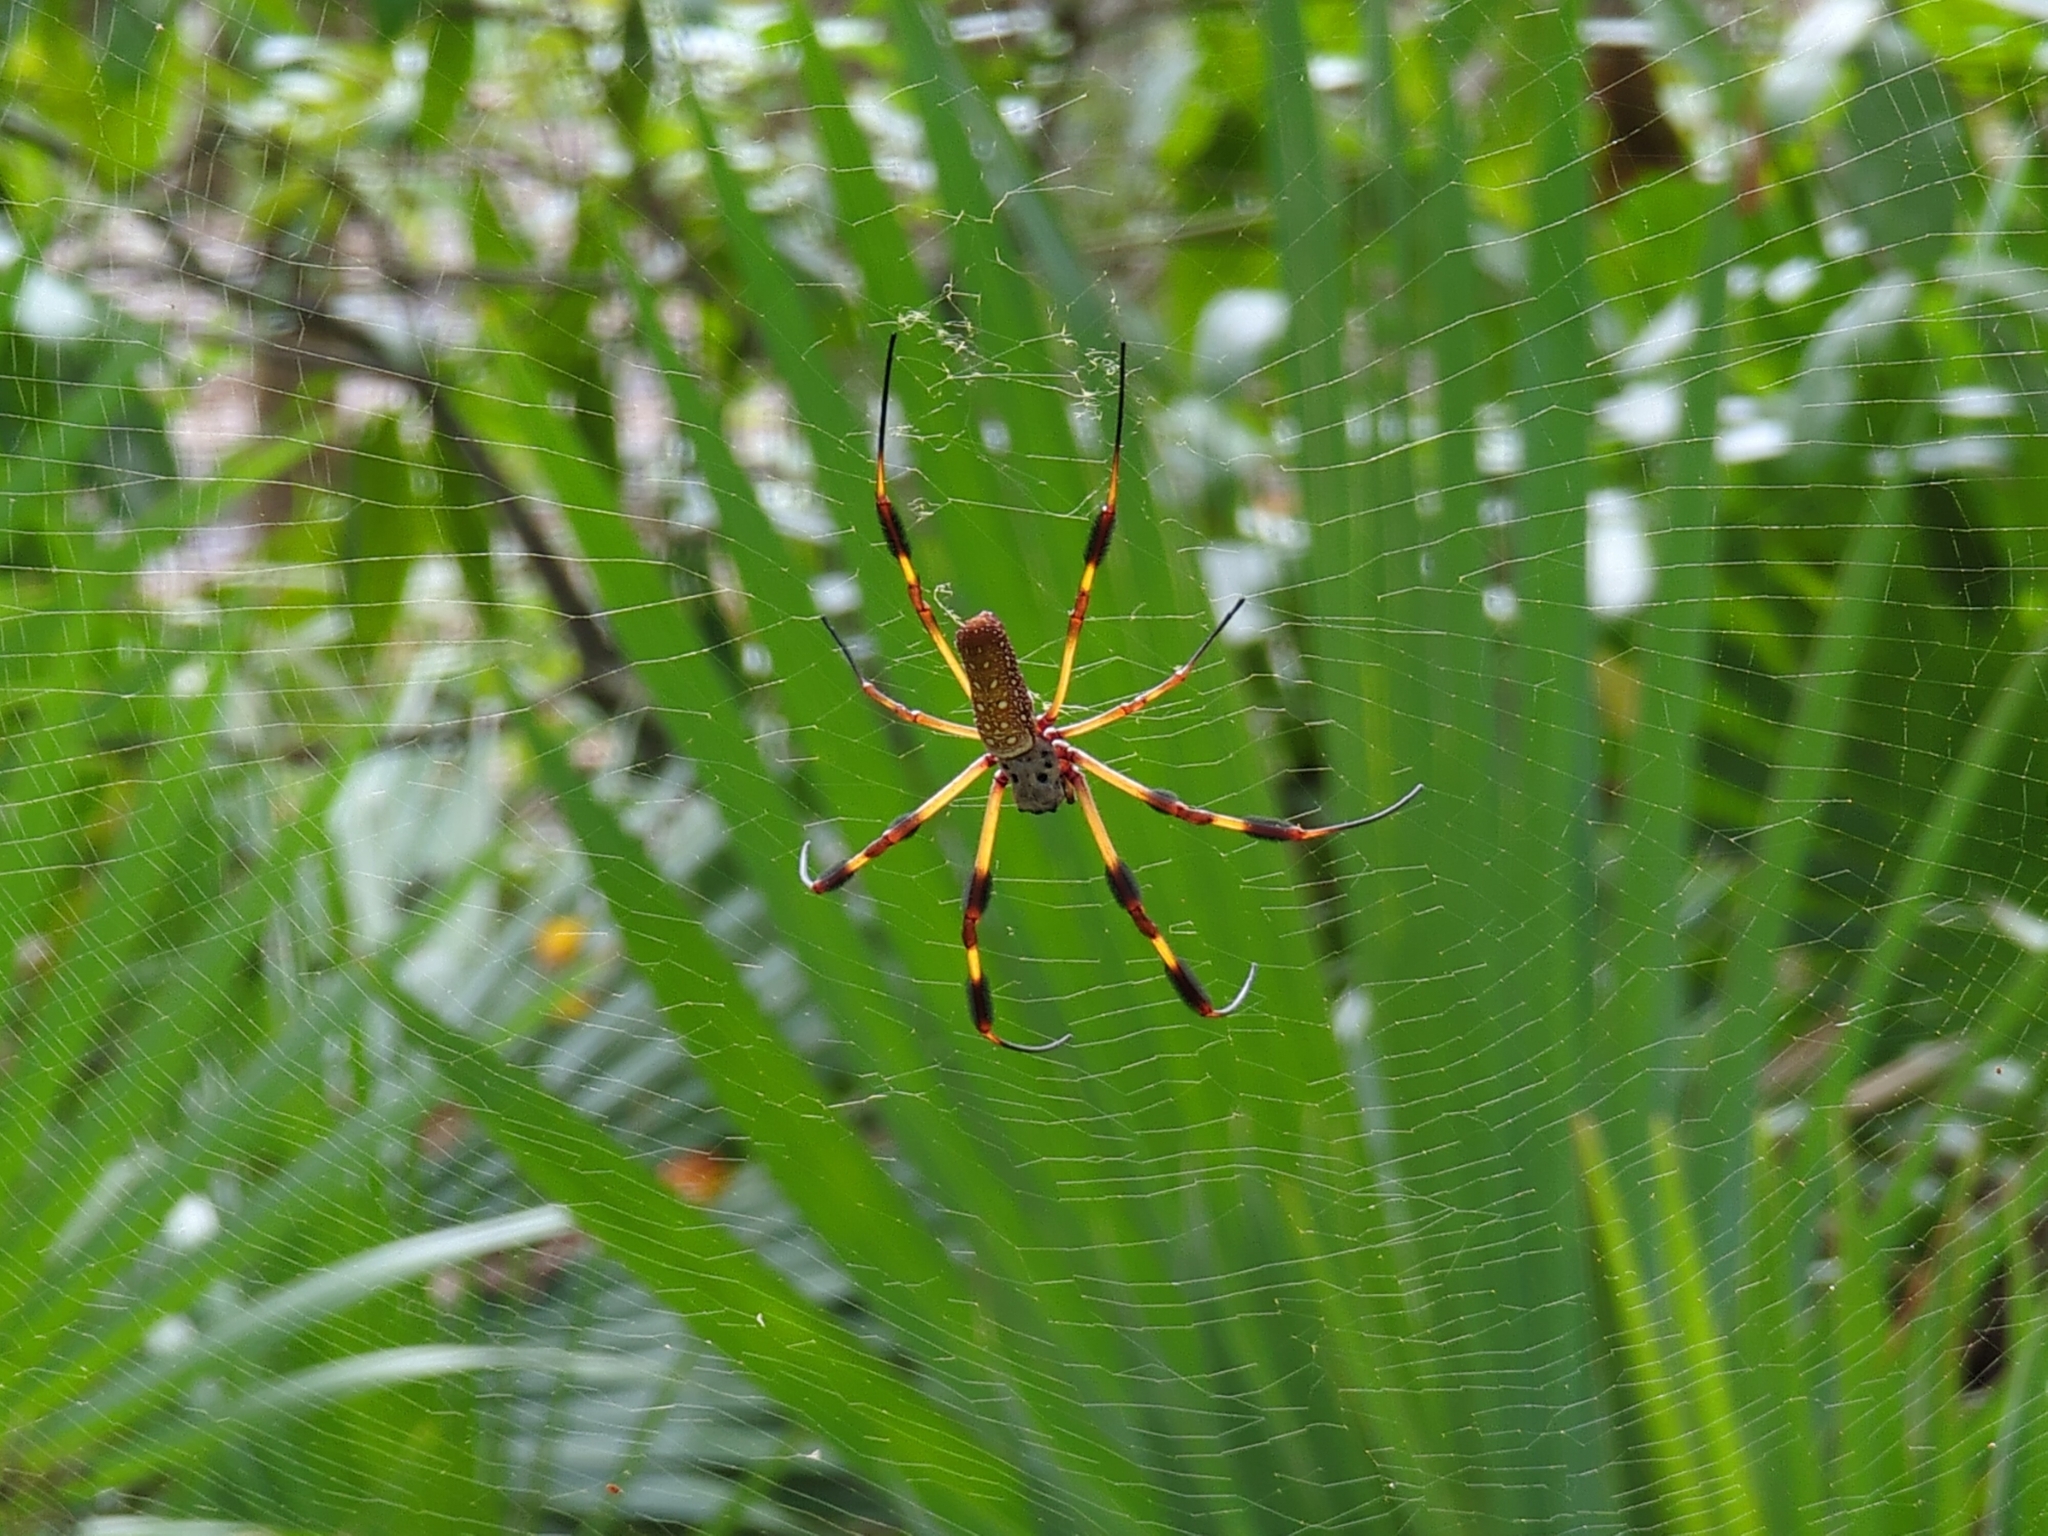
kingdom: Animalia
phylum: Arthropoda
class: Arachnida
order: Araneae
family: Araneidae
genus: Trichonephila
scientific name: Trichonephila clavipes
